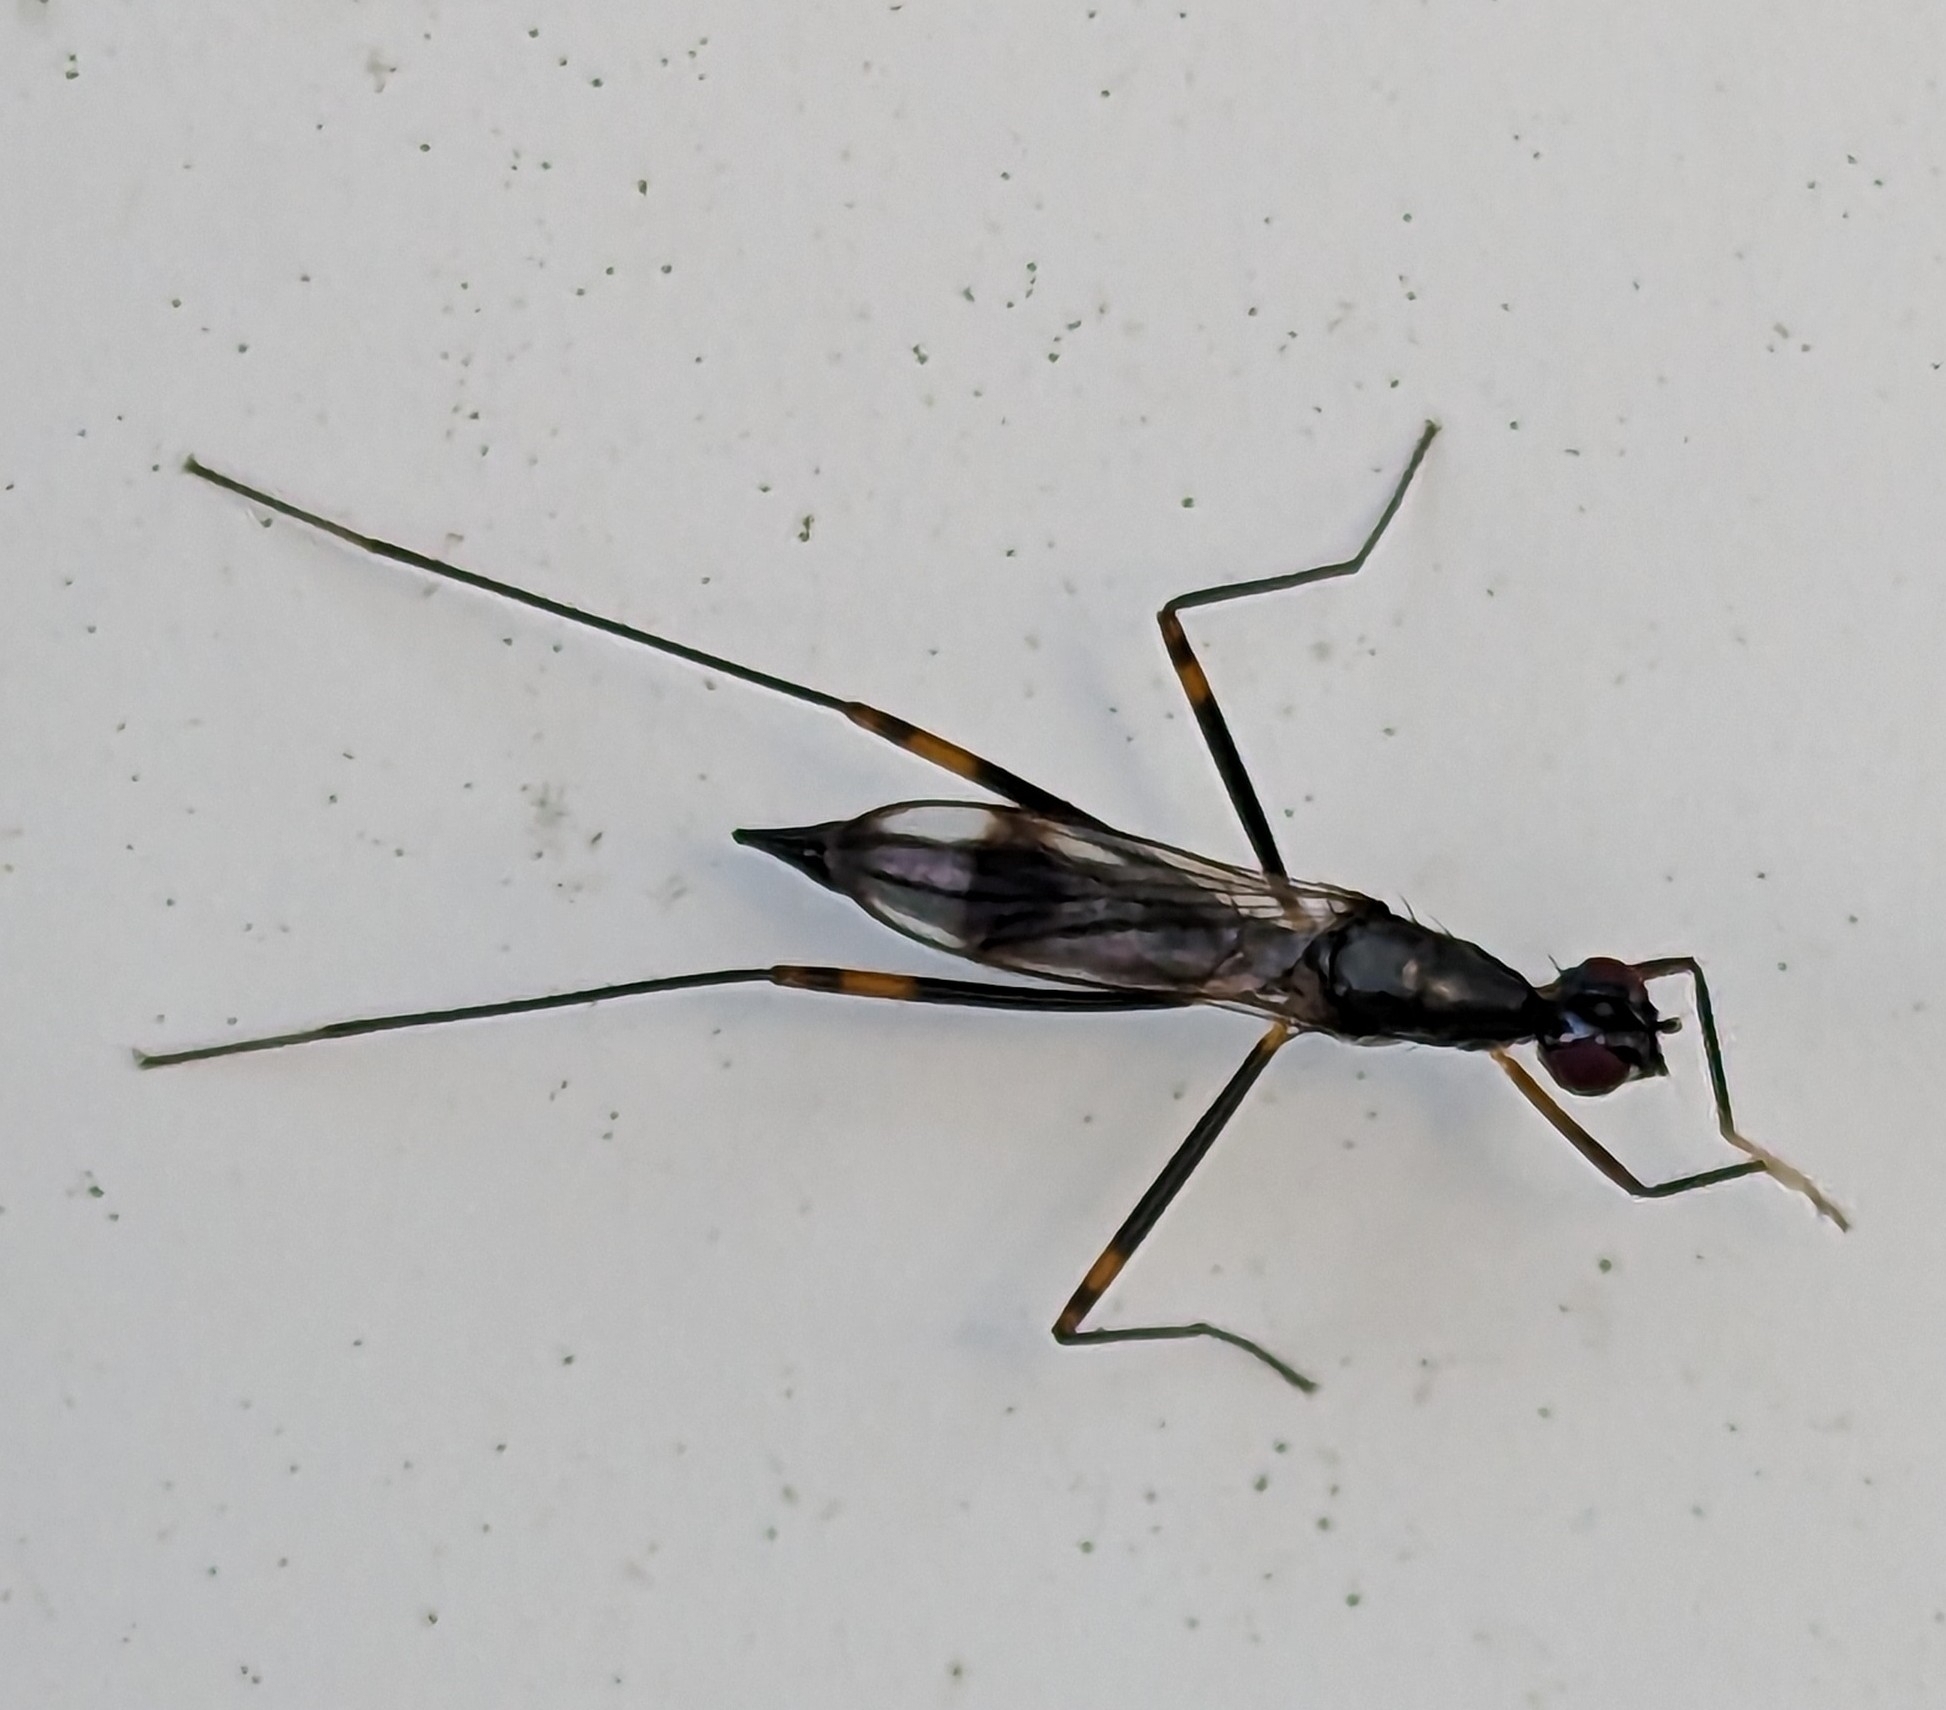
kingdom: Animalia
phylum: Arthropoda
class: Insecta
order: Diptera
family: Micropezidae
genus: Rainieria
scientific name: Rainieria antennaepes
